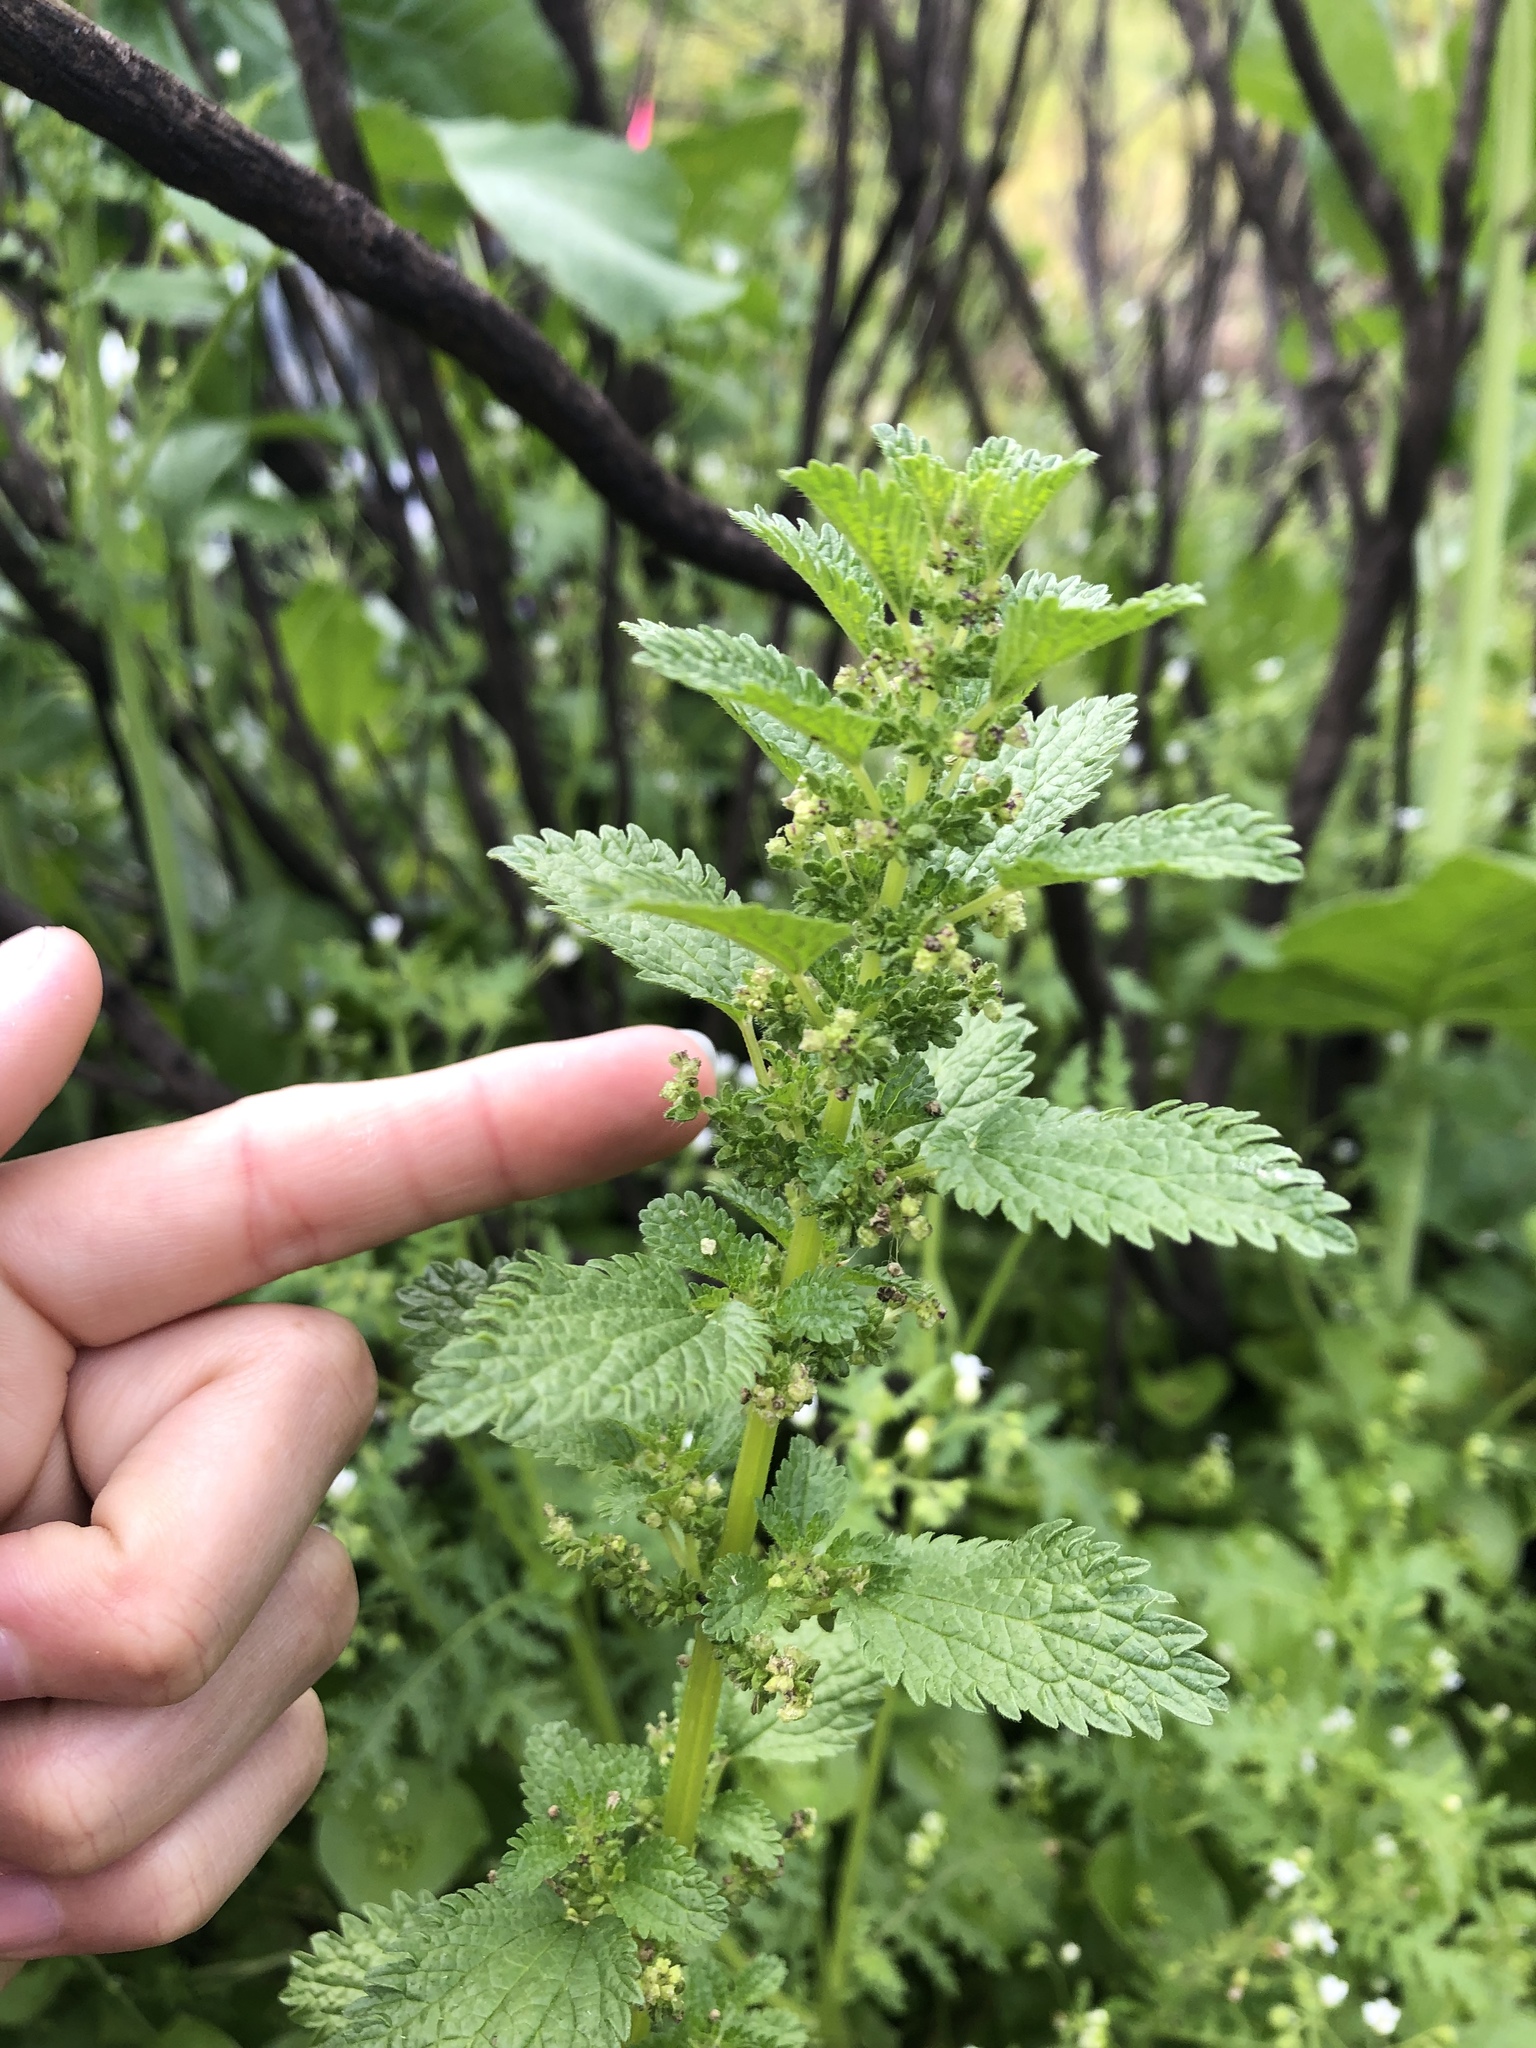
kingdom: Plantae
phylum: Tracheophyta
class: Magnoliopsida
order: Rosales
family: Urticaceae
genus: Urtica
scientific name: Urtica urens
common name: Dwarf nettle
